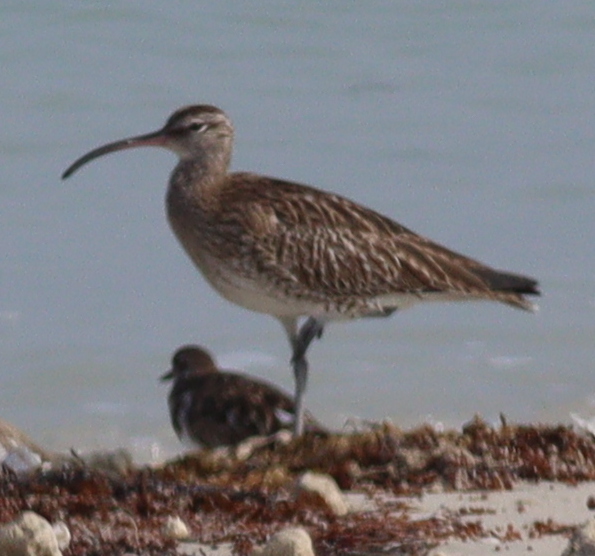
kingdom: Animalia
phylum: Chordata
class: Aves
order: Charadriiformes
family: Scolopacidae
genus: Numenius
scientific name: Numenius phaeopus
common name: Whimbrel
